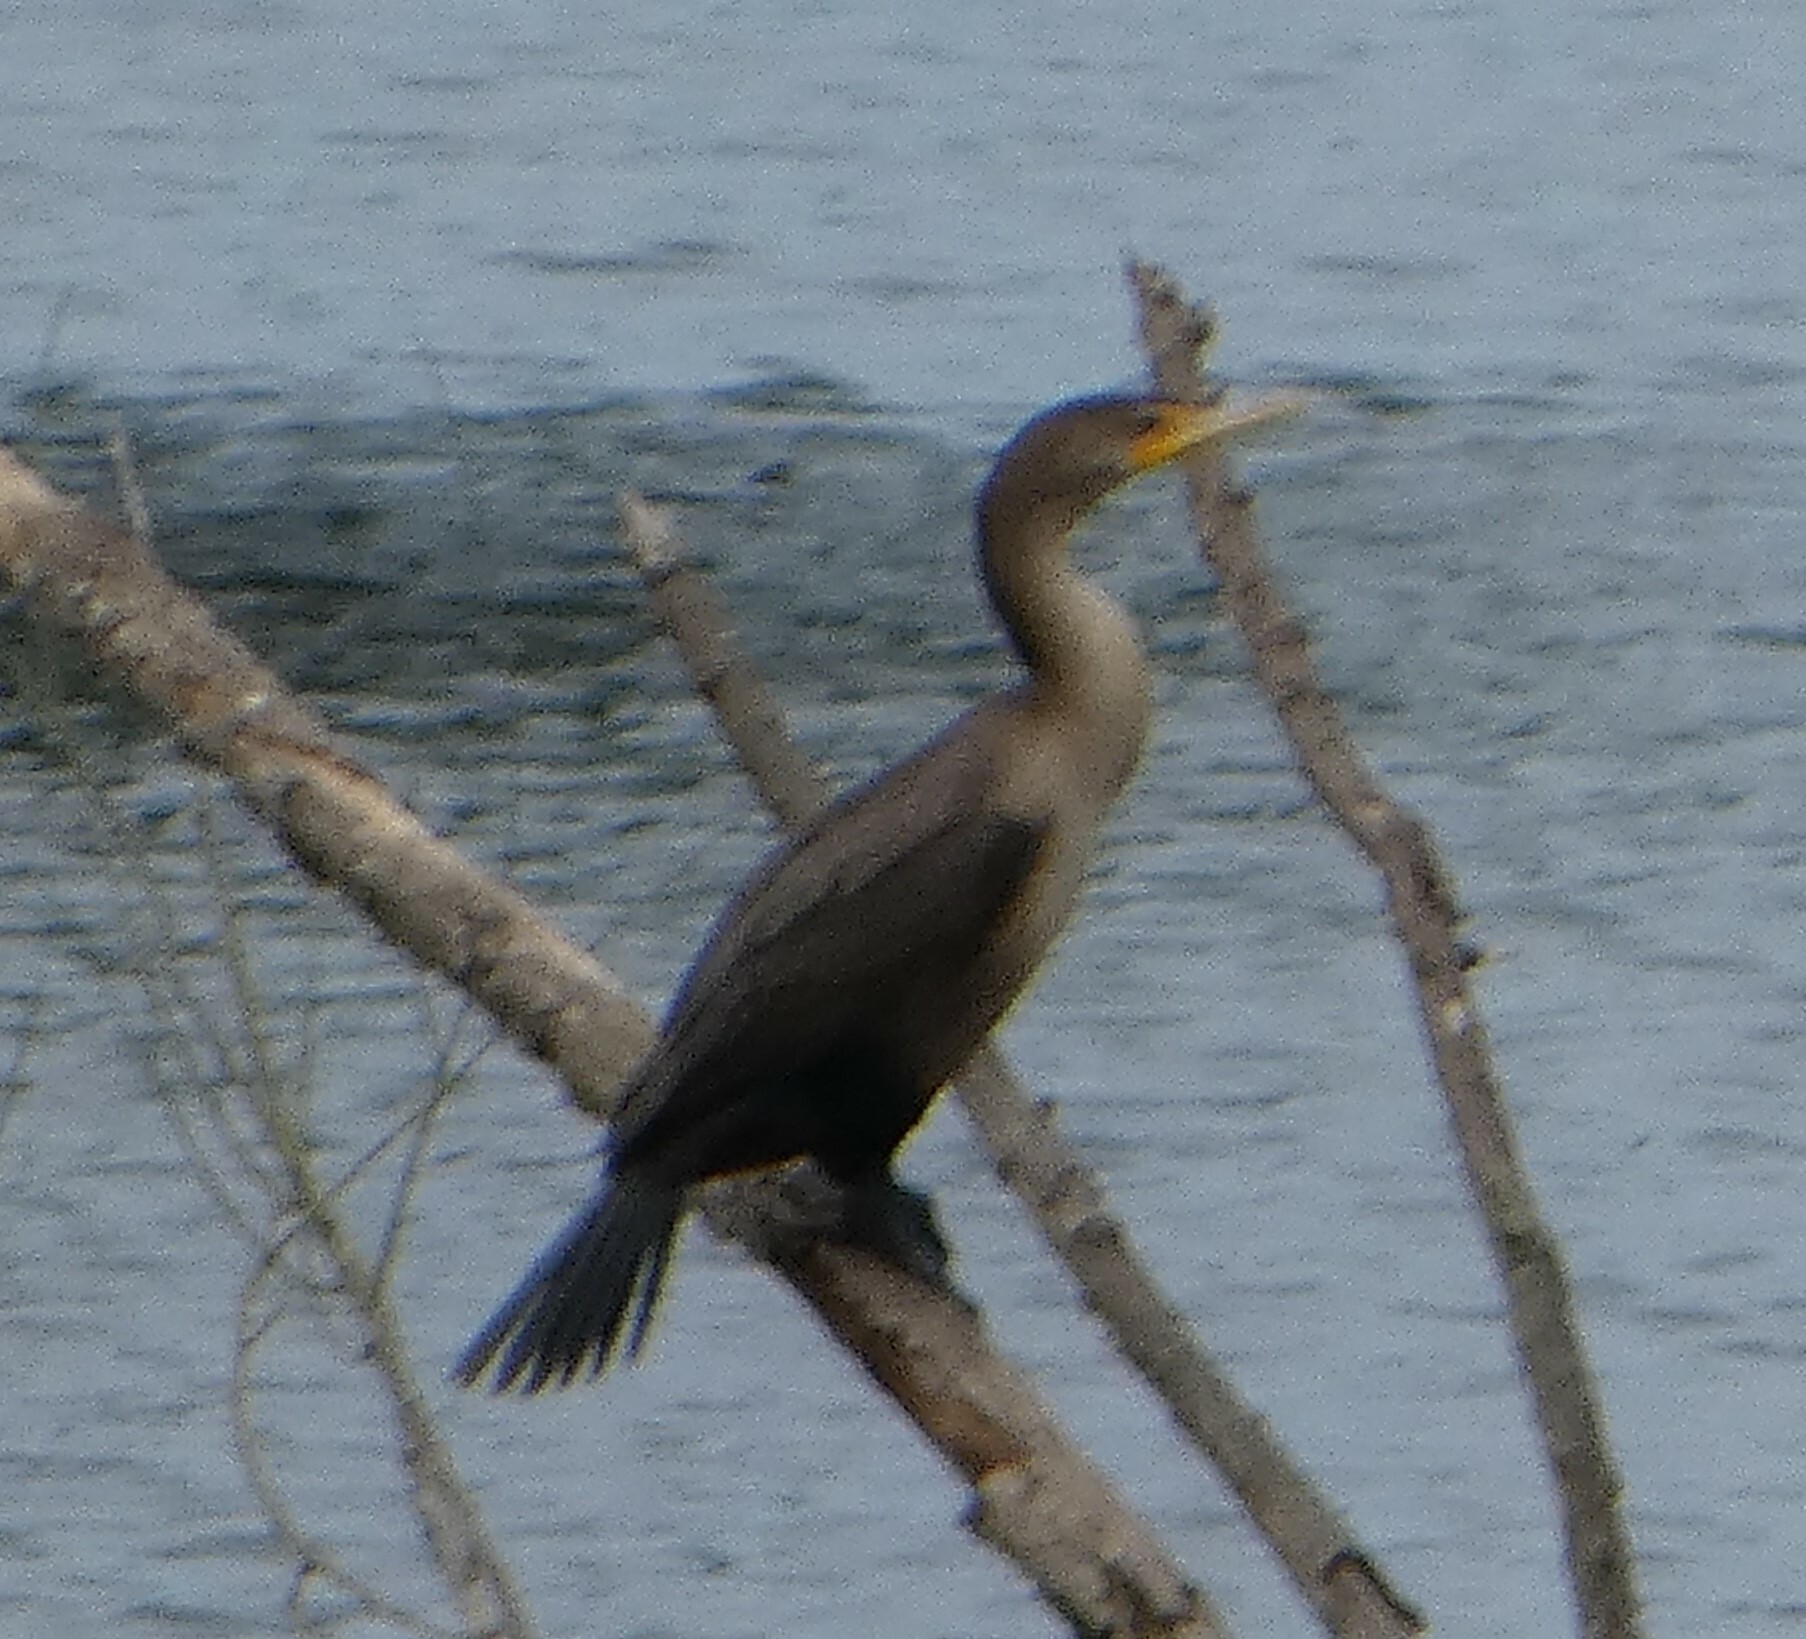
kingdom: Animalia
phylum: Chordata
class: Aves
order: Suliformes
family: Phalacrocoracidae
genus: Phalacrocorax
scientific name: Phalacrocorax auritus
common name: Double-crested cormorant
